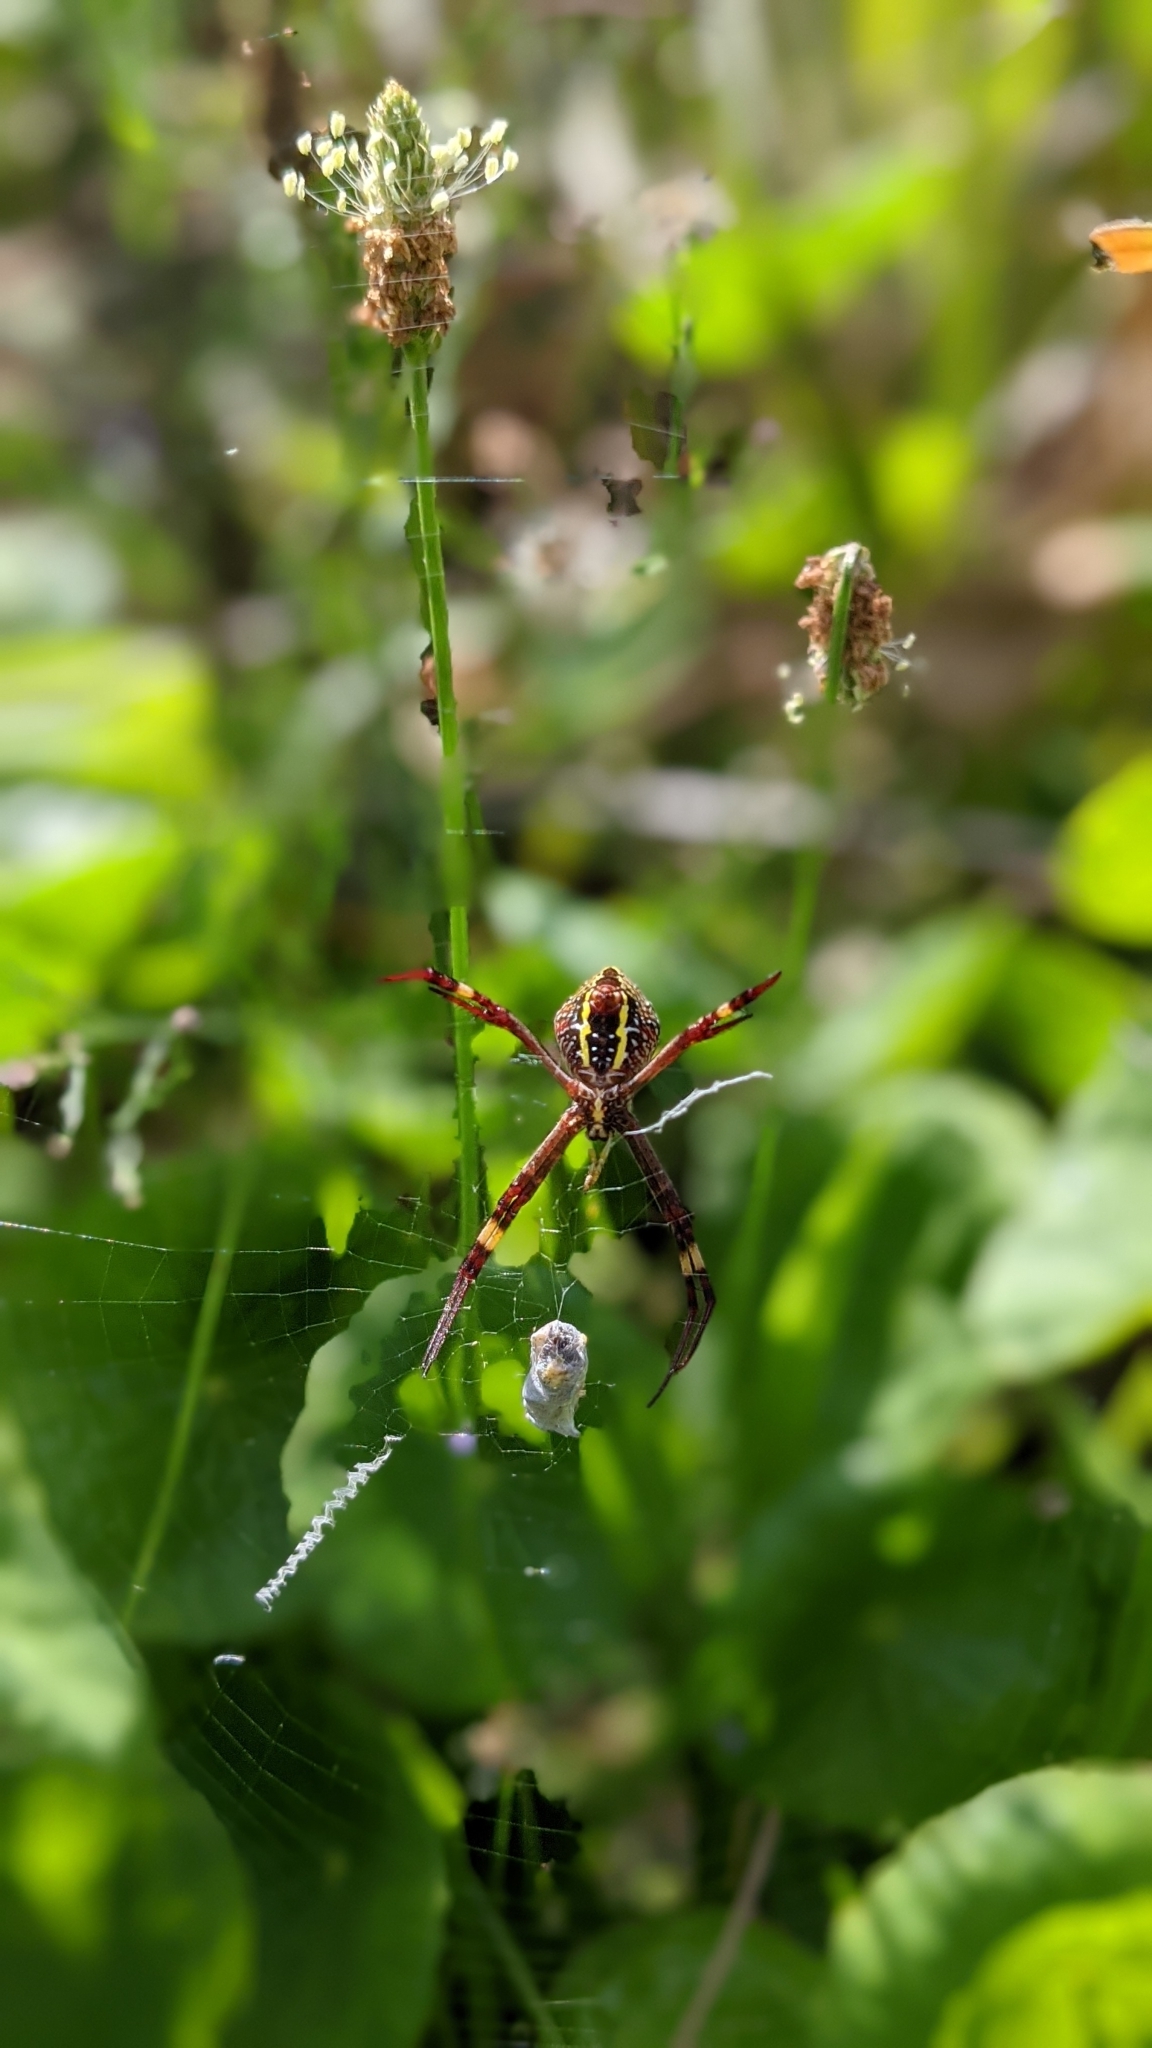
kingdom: Animalia
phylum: Arthropoda
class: Arachnida
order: Araneae
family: Araneidae
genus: Argiope
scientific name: Argiope keyserlingi
